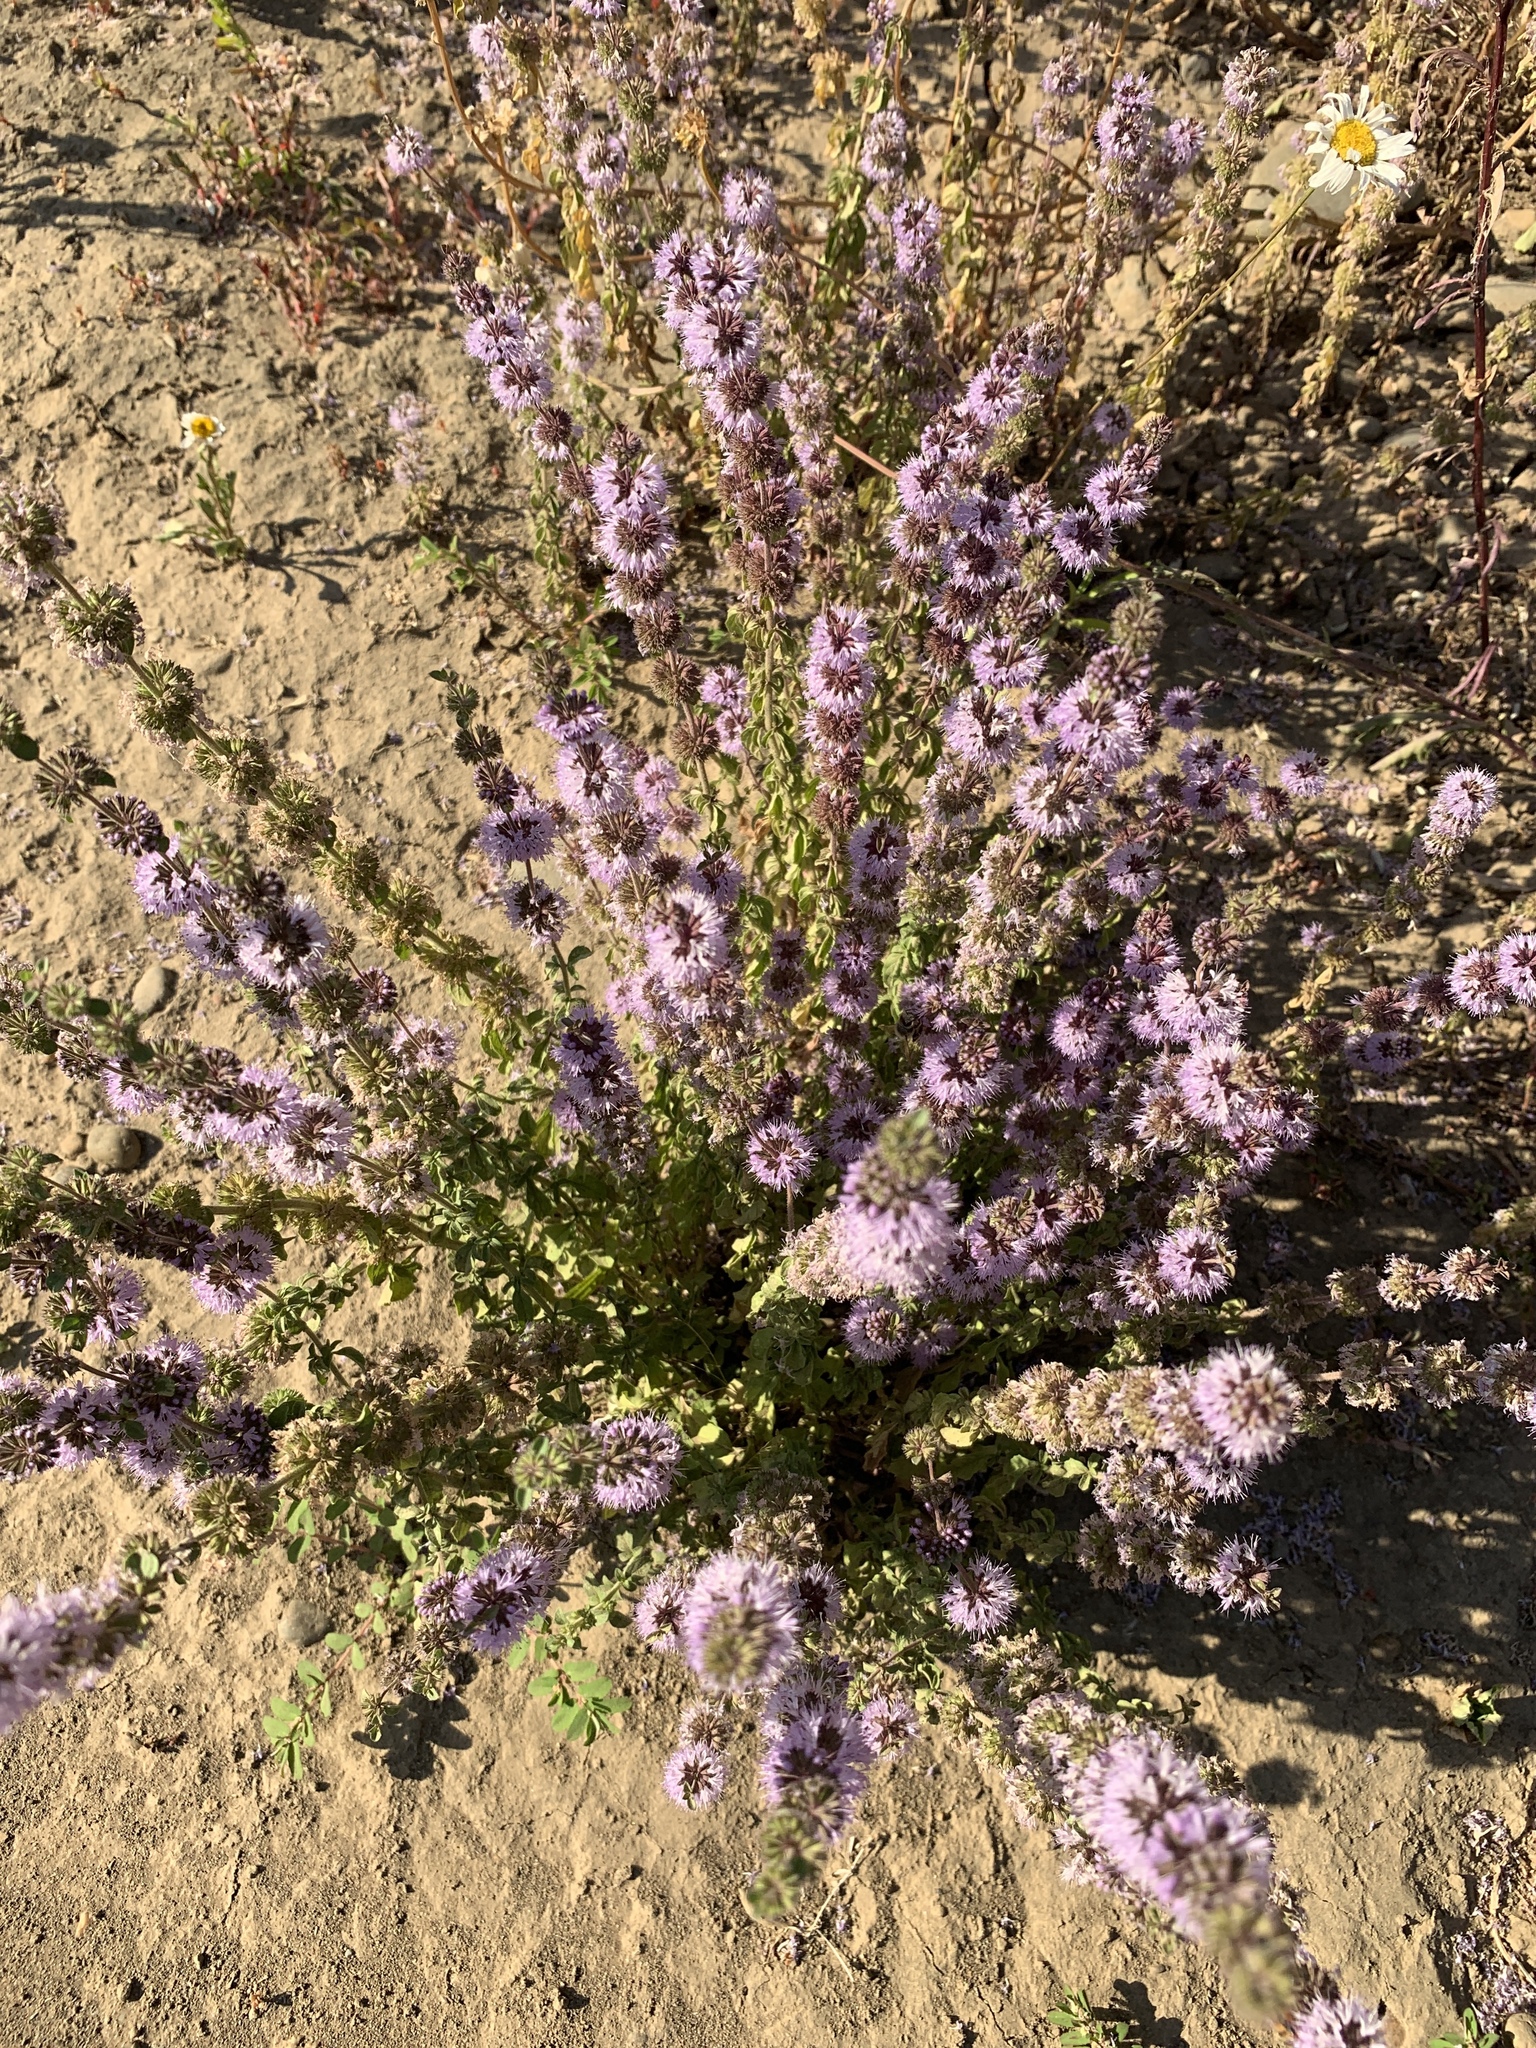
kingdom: Plantae
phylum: Tracheophyta
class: Magnoliopsida
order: Lamiales
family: Lamiaceae
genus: Mentha
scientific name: Mentha pulegium
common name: Pennyroyal
